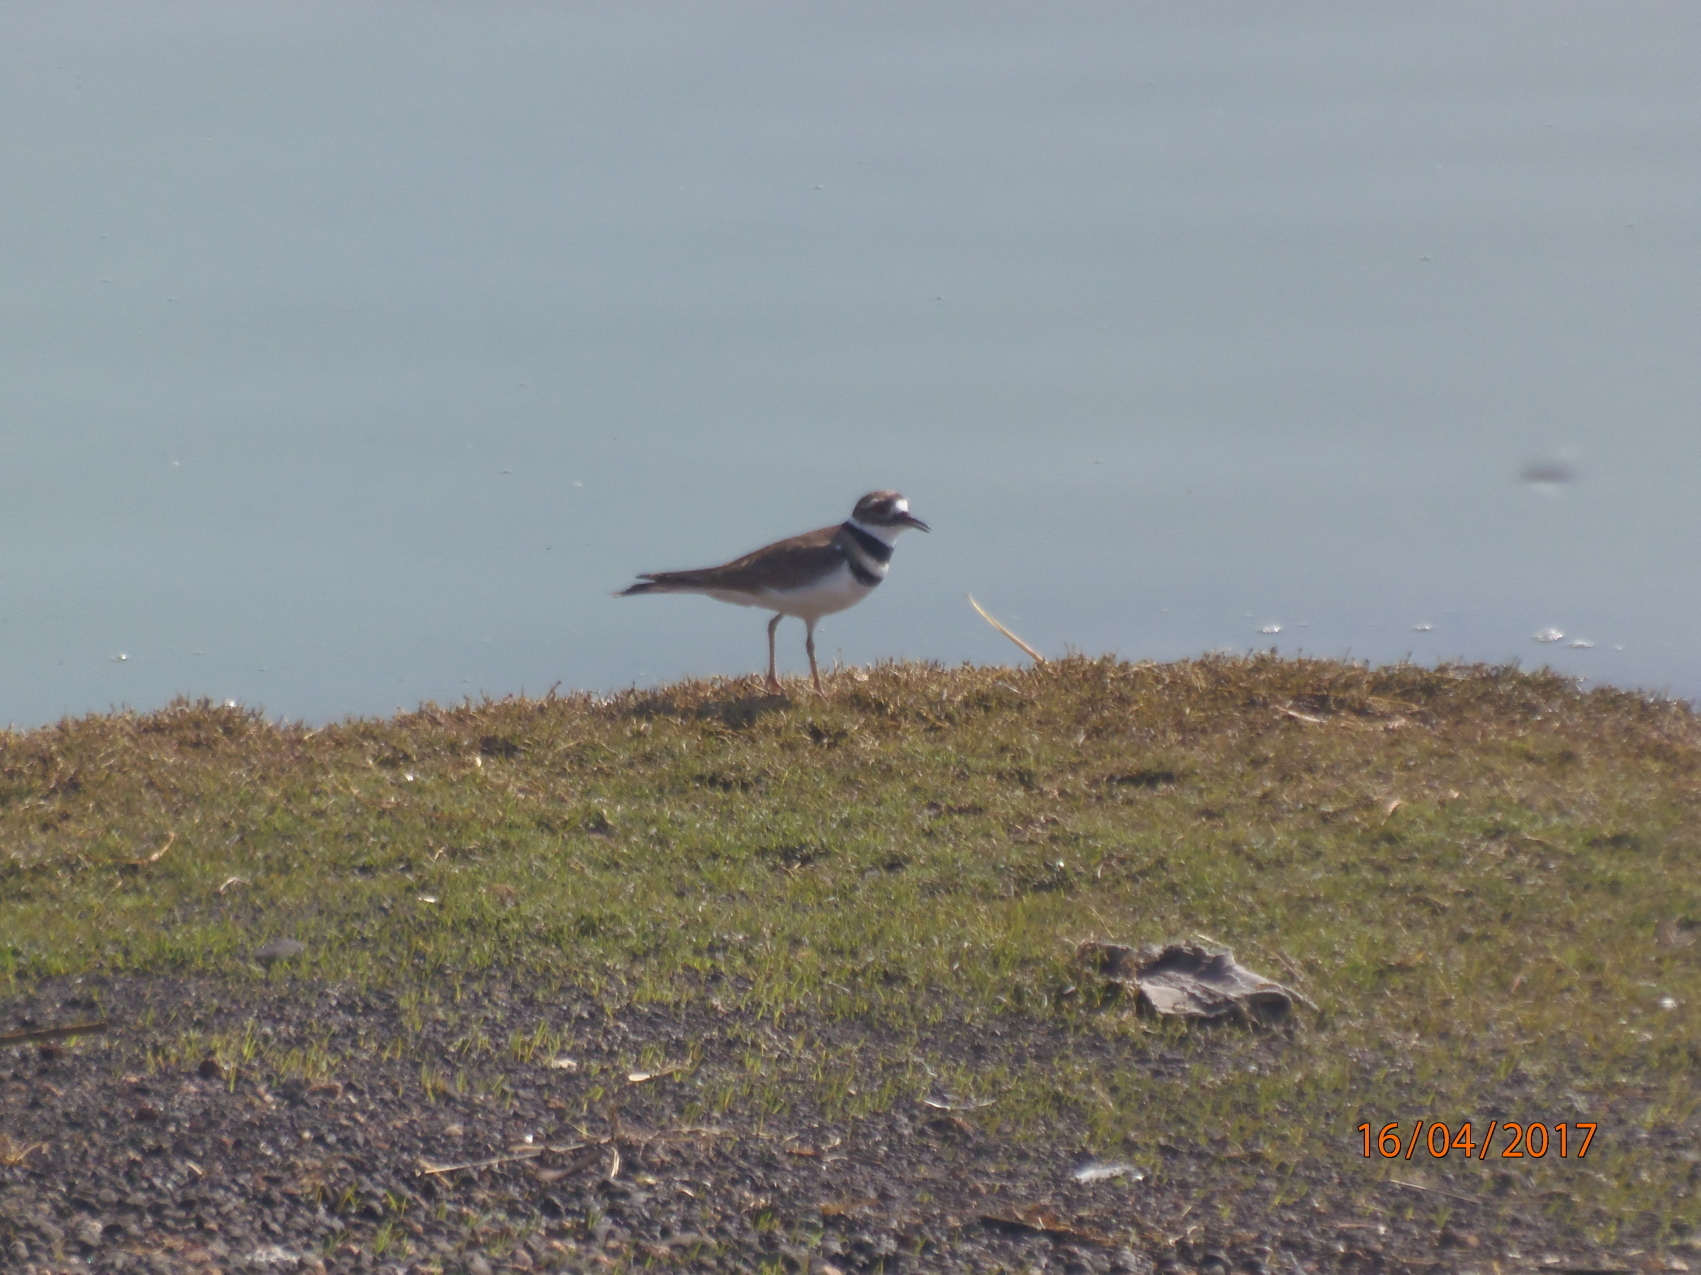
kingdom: Animalia
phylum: Chordata
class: Aves
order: Charadriiformes
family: Charadriidae
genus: Charadrius
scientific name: Charadrius vociferus
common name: Killdeer
